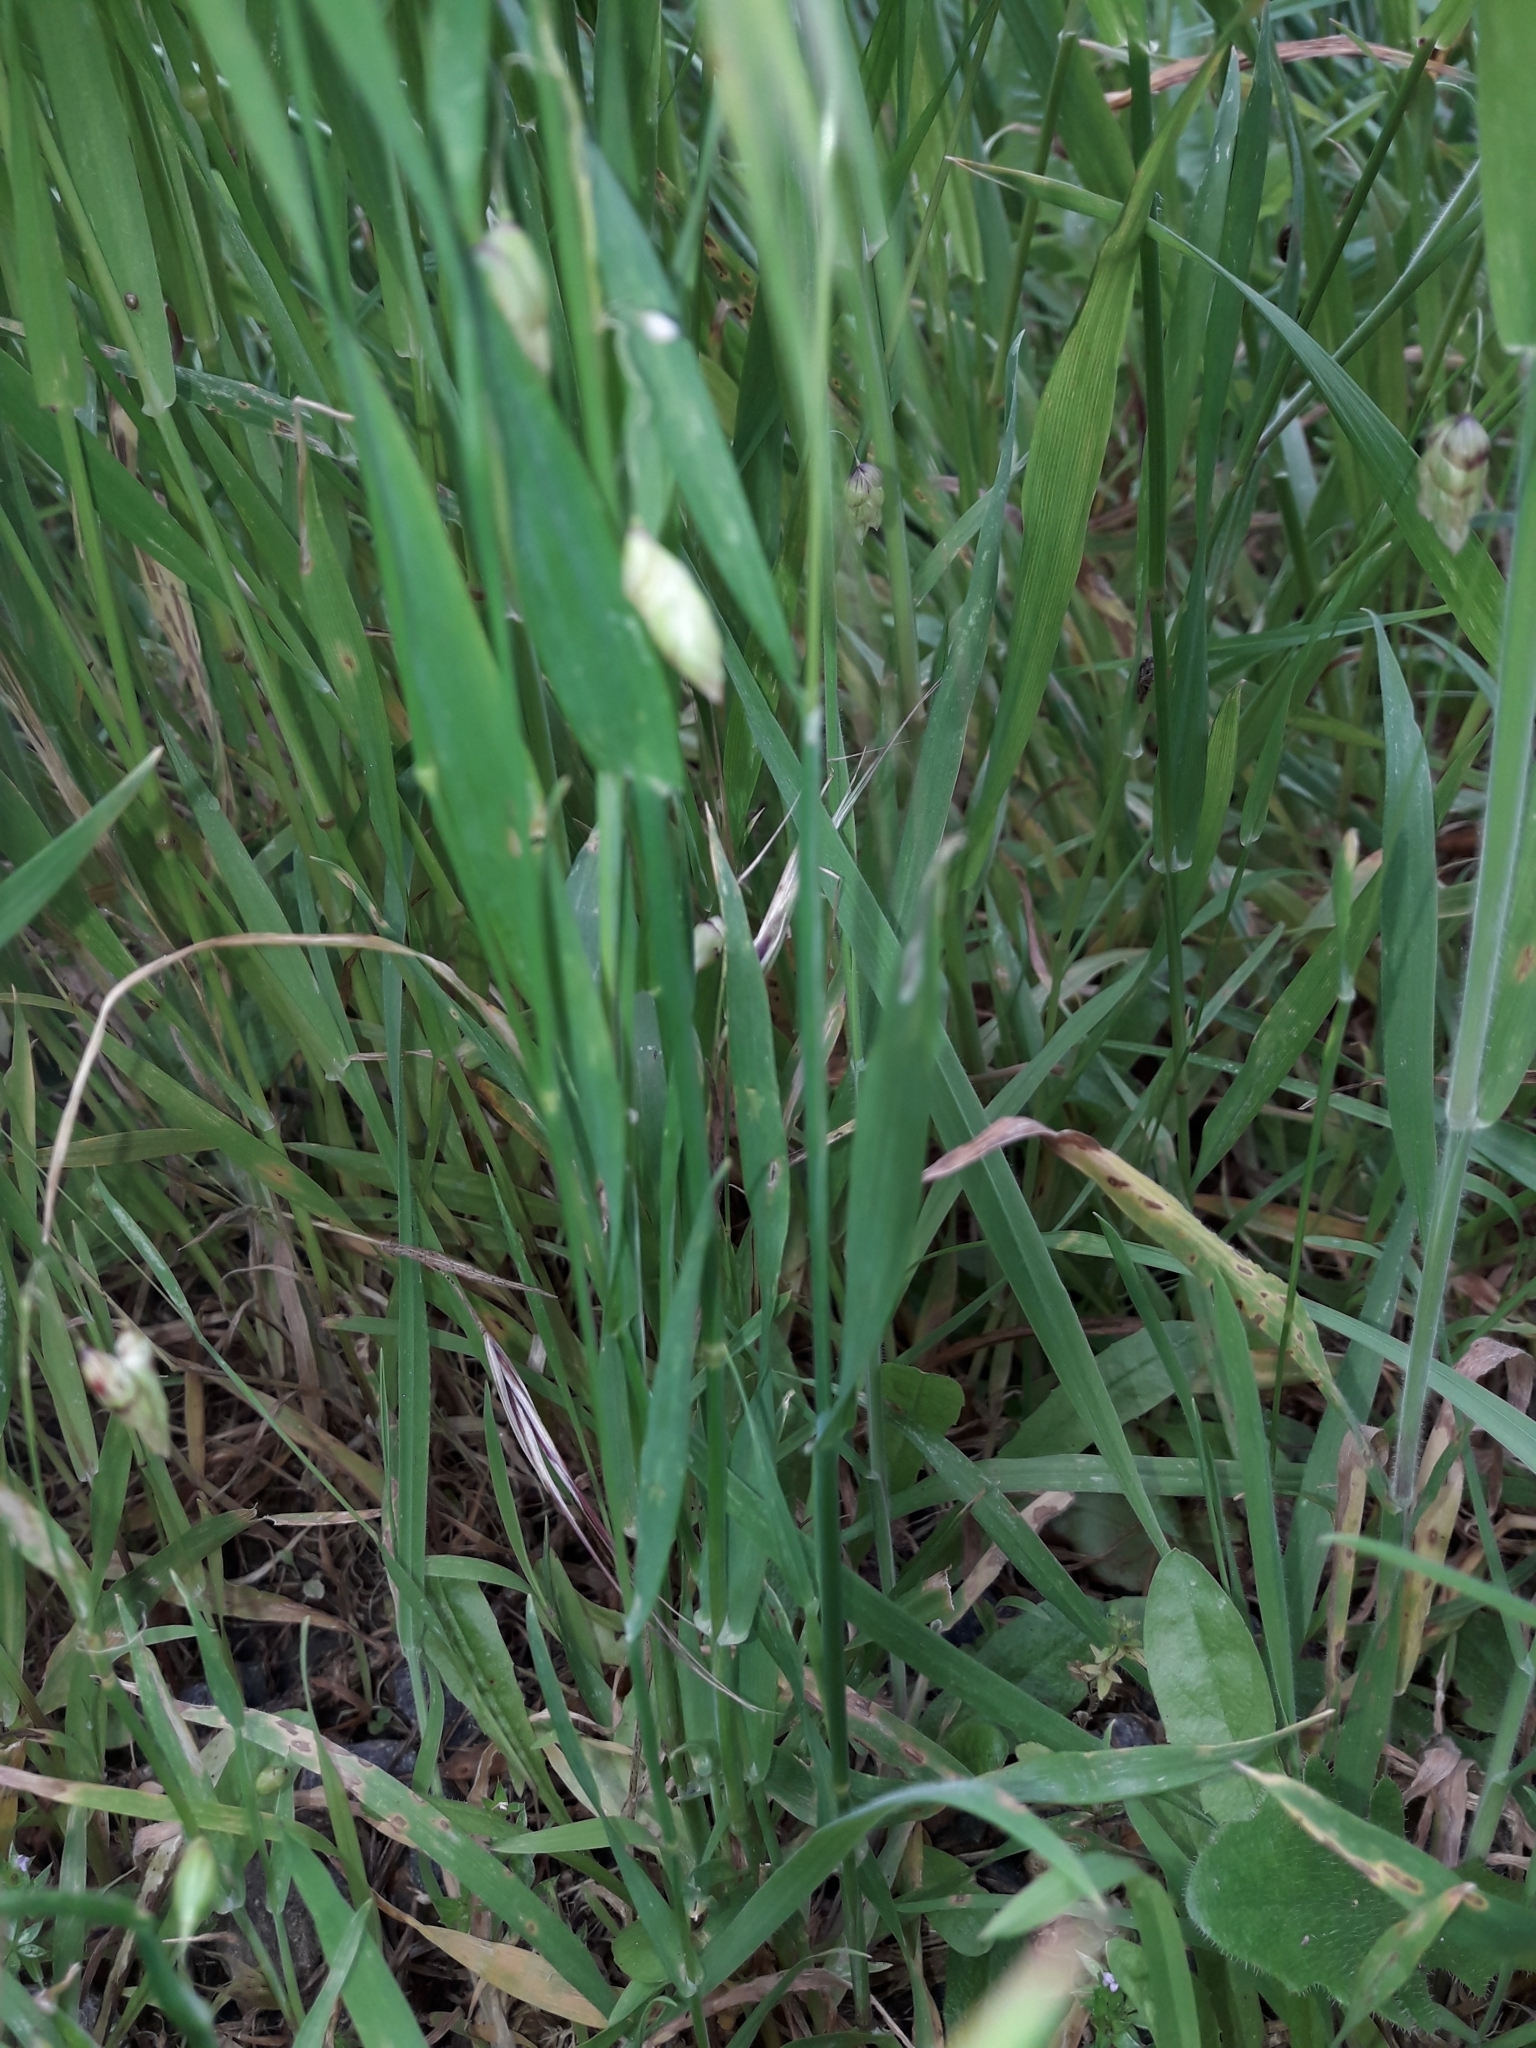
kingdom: Plantae
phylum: Tracheophyta
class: Liliopsida
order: Poales
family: Poaceae
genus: Briza
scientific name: Briza maxima
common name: Big quakinggrass
